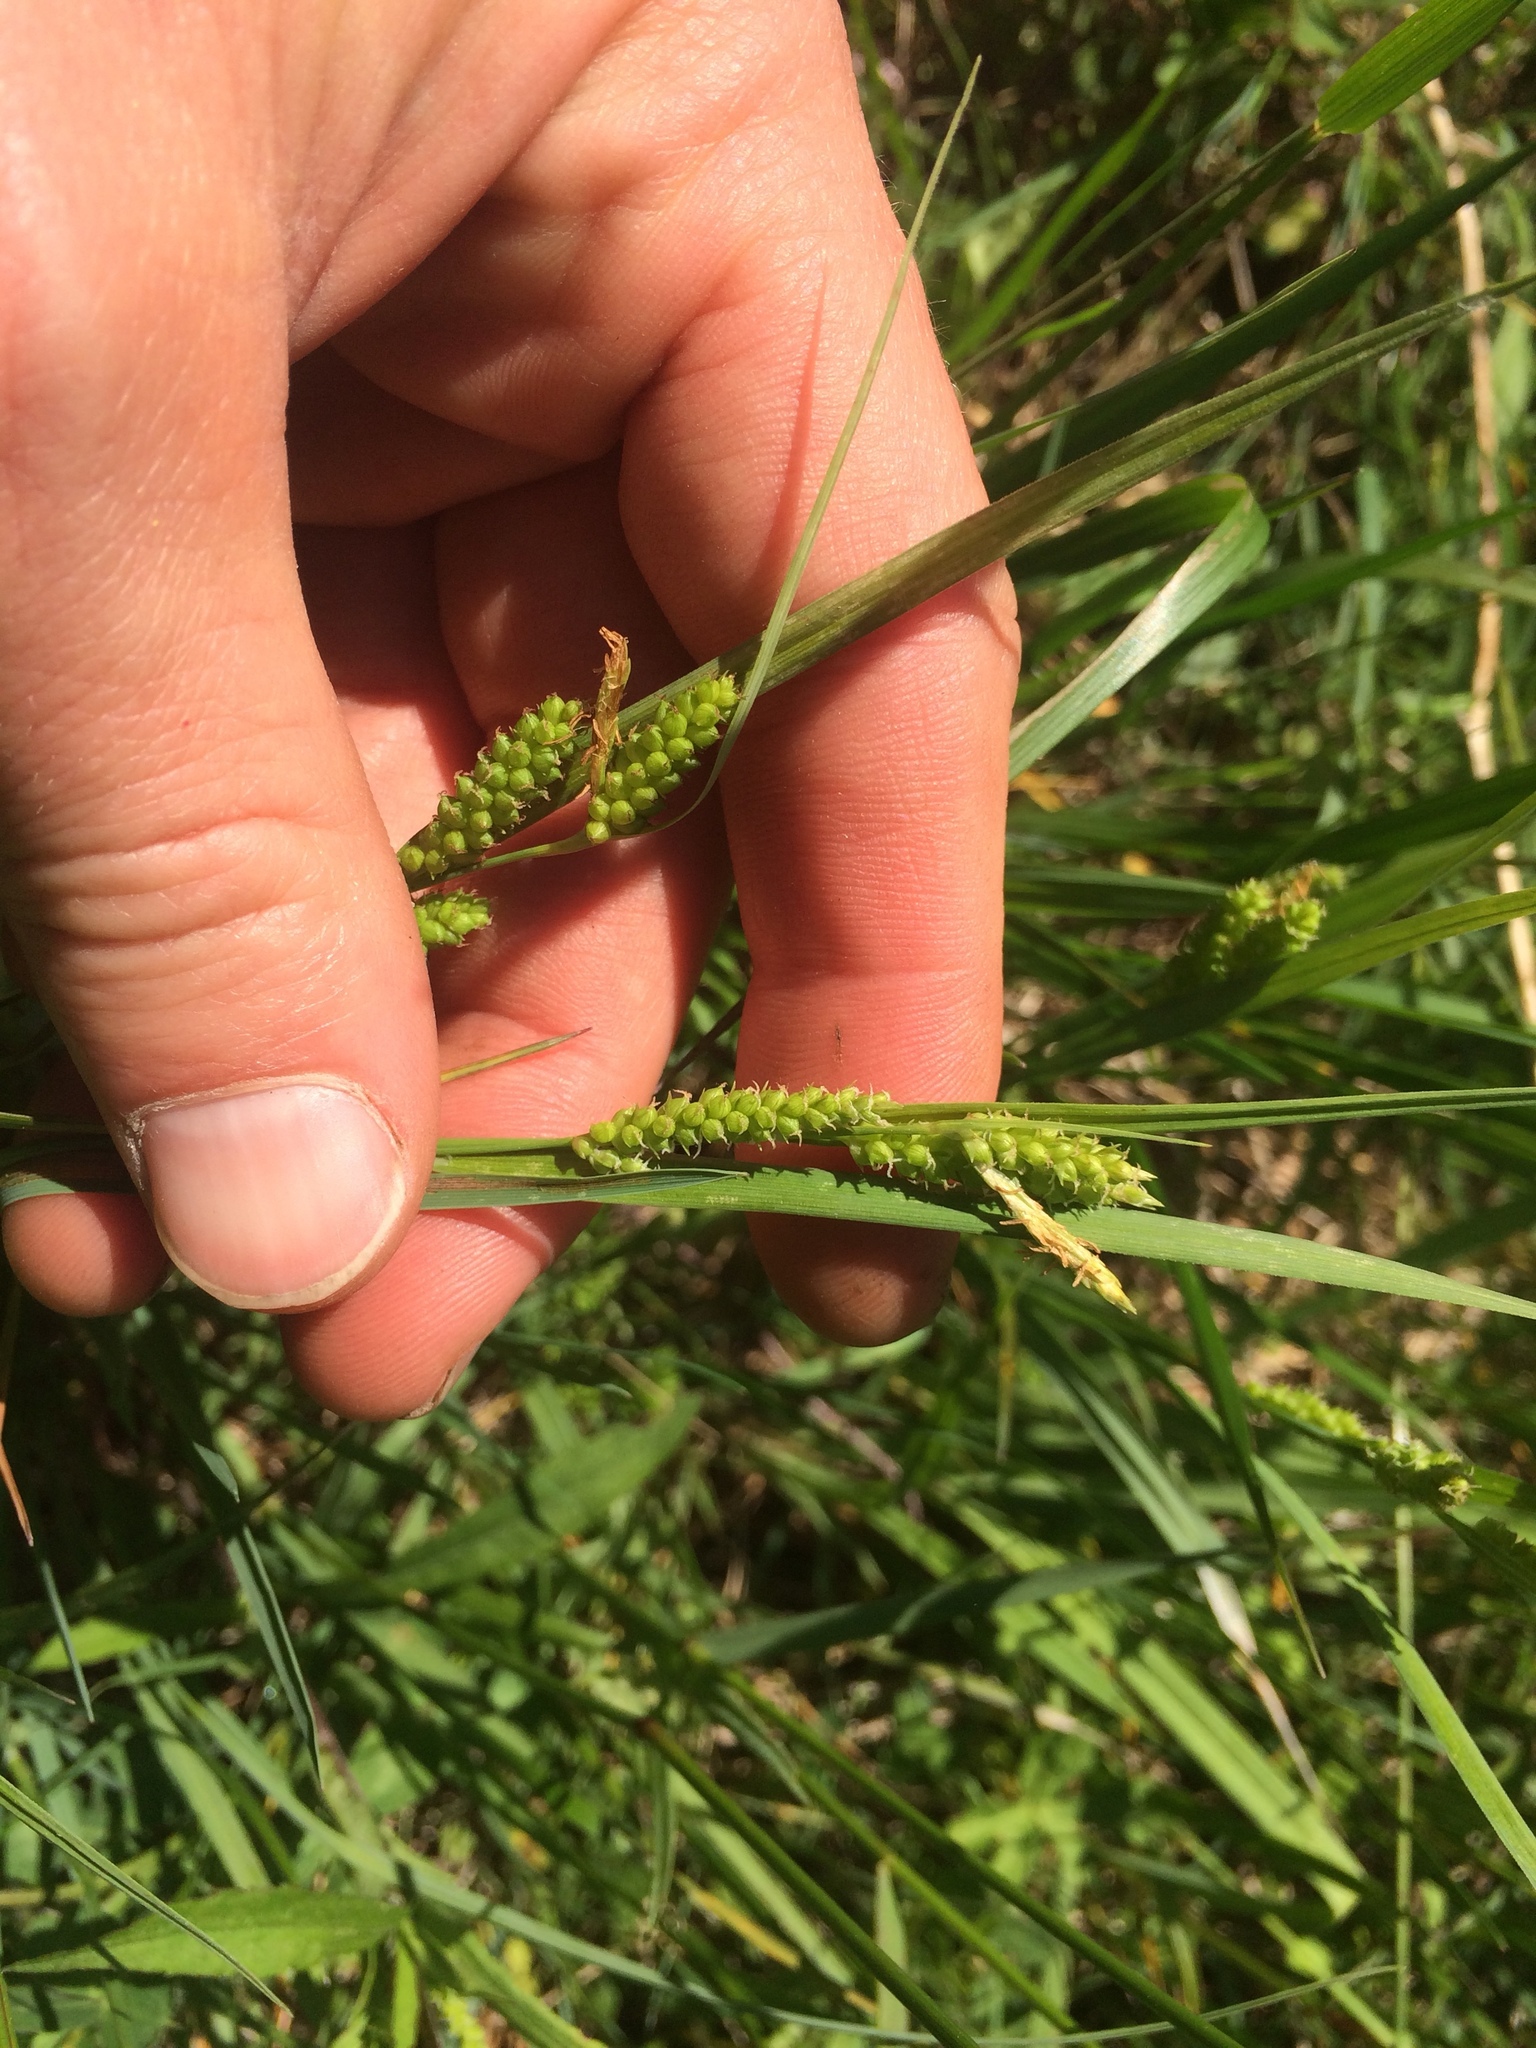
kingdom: Plantae
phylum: Tracheophyta
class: Liliopsida
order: Poales
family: Cyperaceae
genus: Carex
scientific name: Carex granularis
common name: Granular sedge
